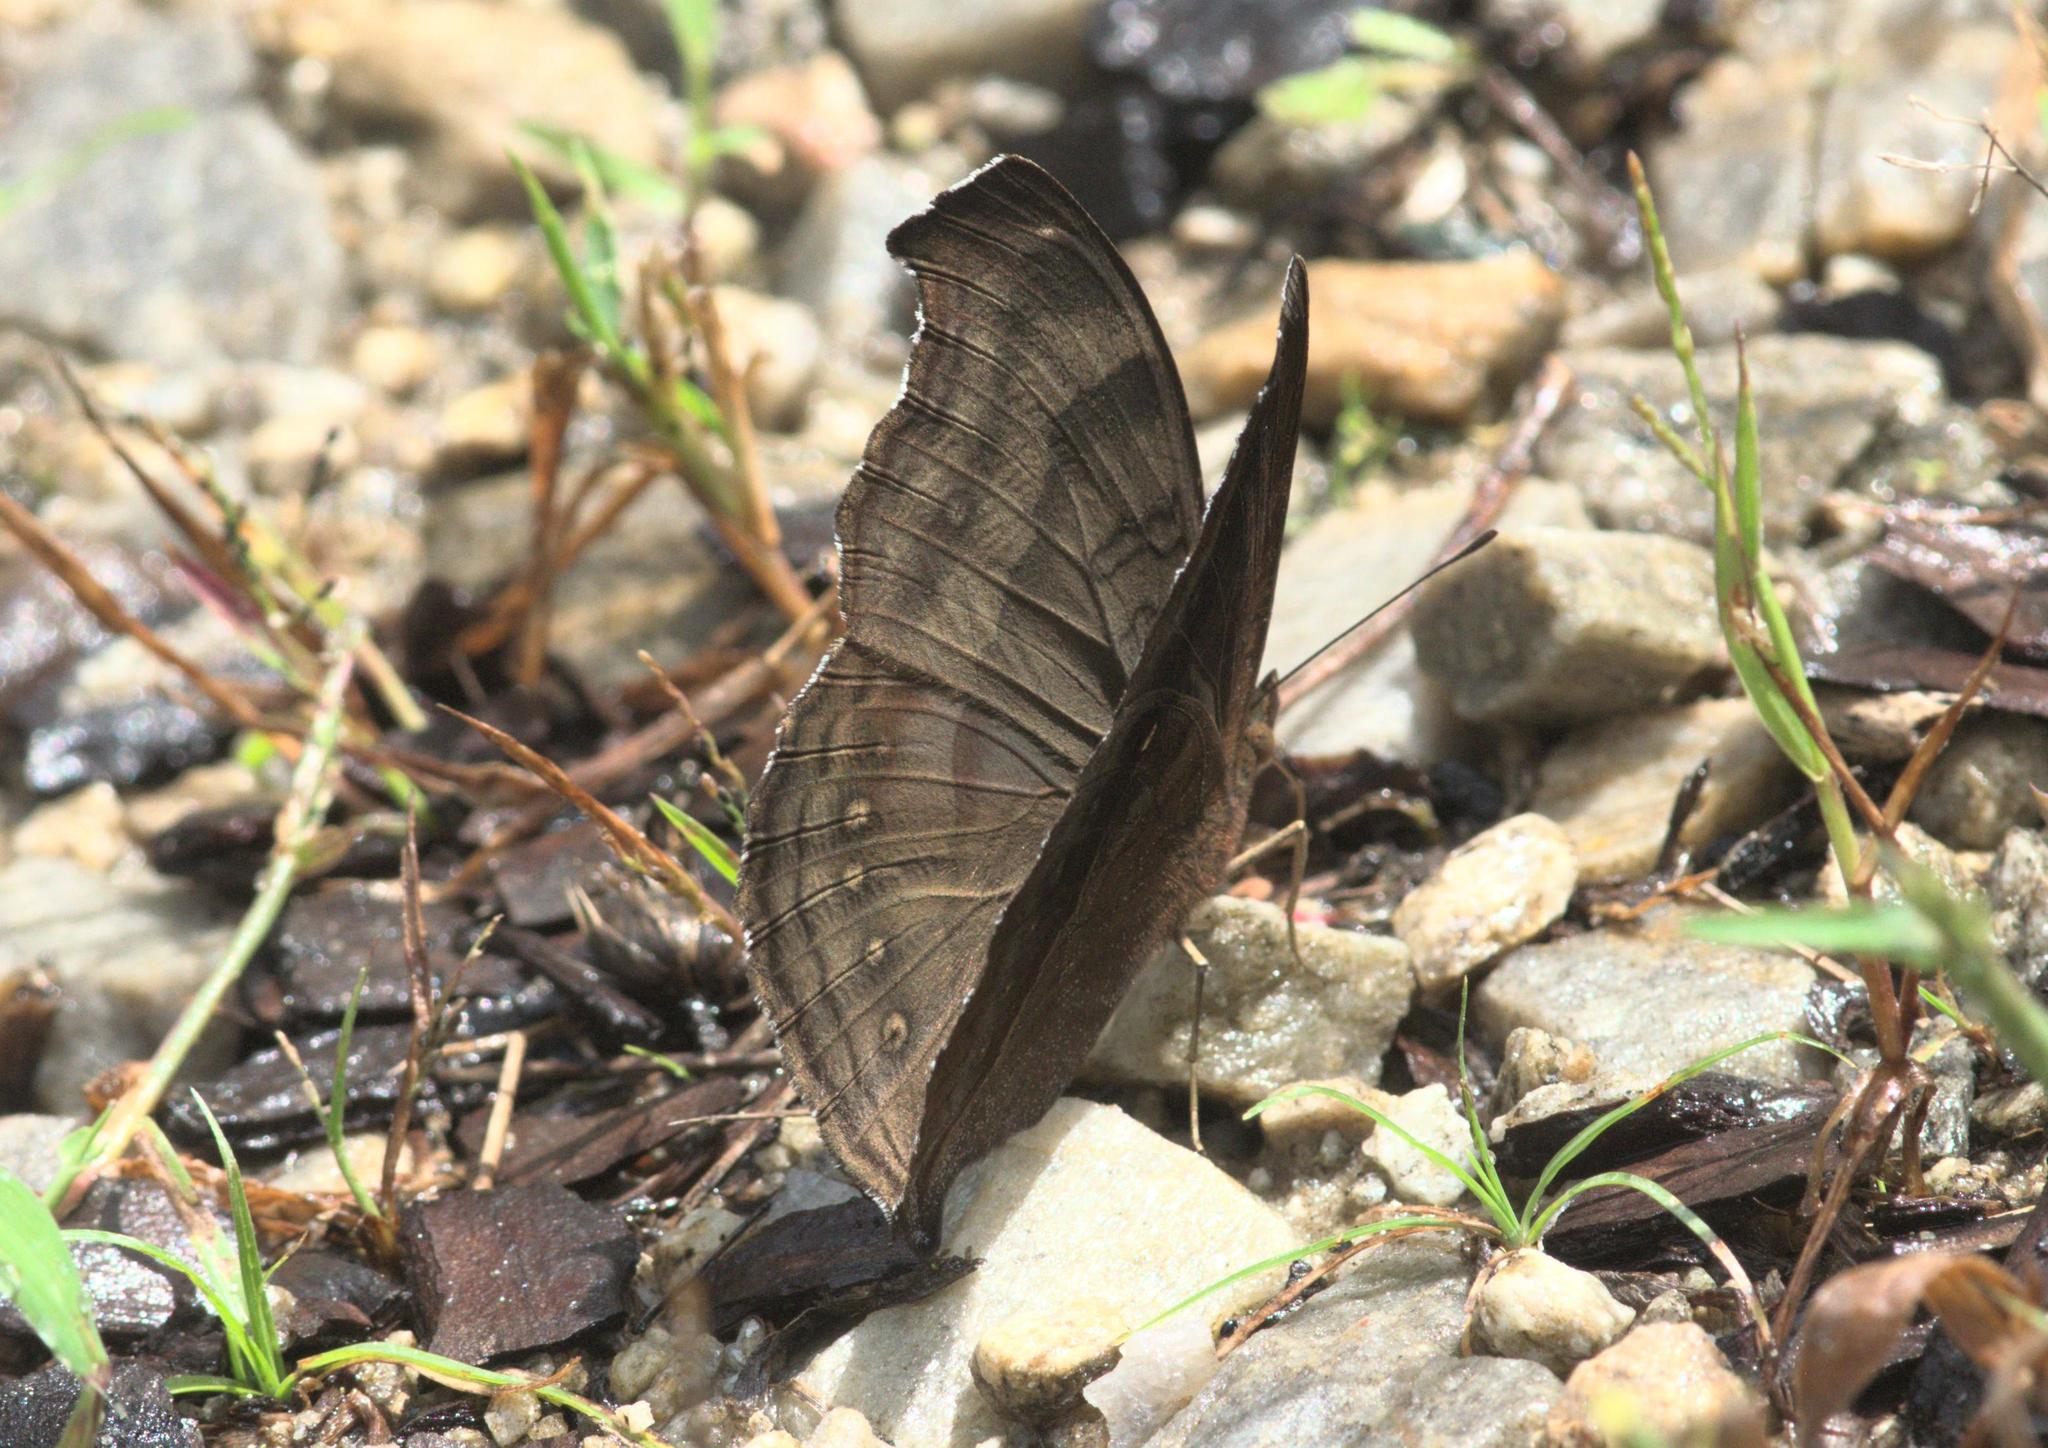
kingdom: Animalia
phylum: Arthropoda
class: Insecta
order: Lepidoptera
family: Nymphalidae
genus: Junonia
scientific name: Junonia iphita
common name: Chocolate pansy
